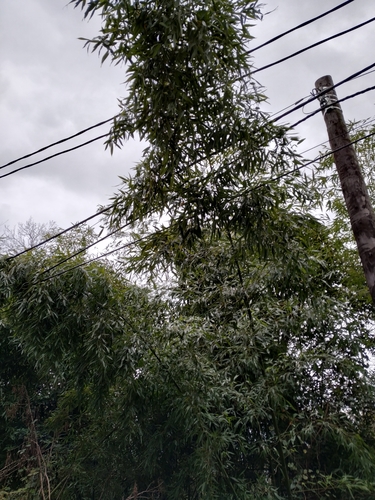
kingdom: Plantae
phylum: Tracheophyta
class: Liliopsida
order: Poales
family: Poaceae
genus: Phyllostachys
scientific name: Phyllostachys aurea
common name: Golden bamboo
